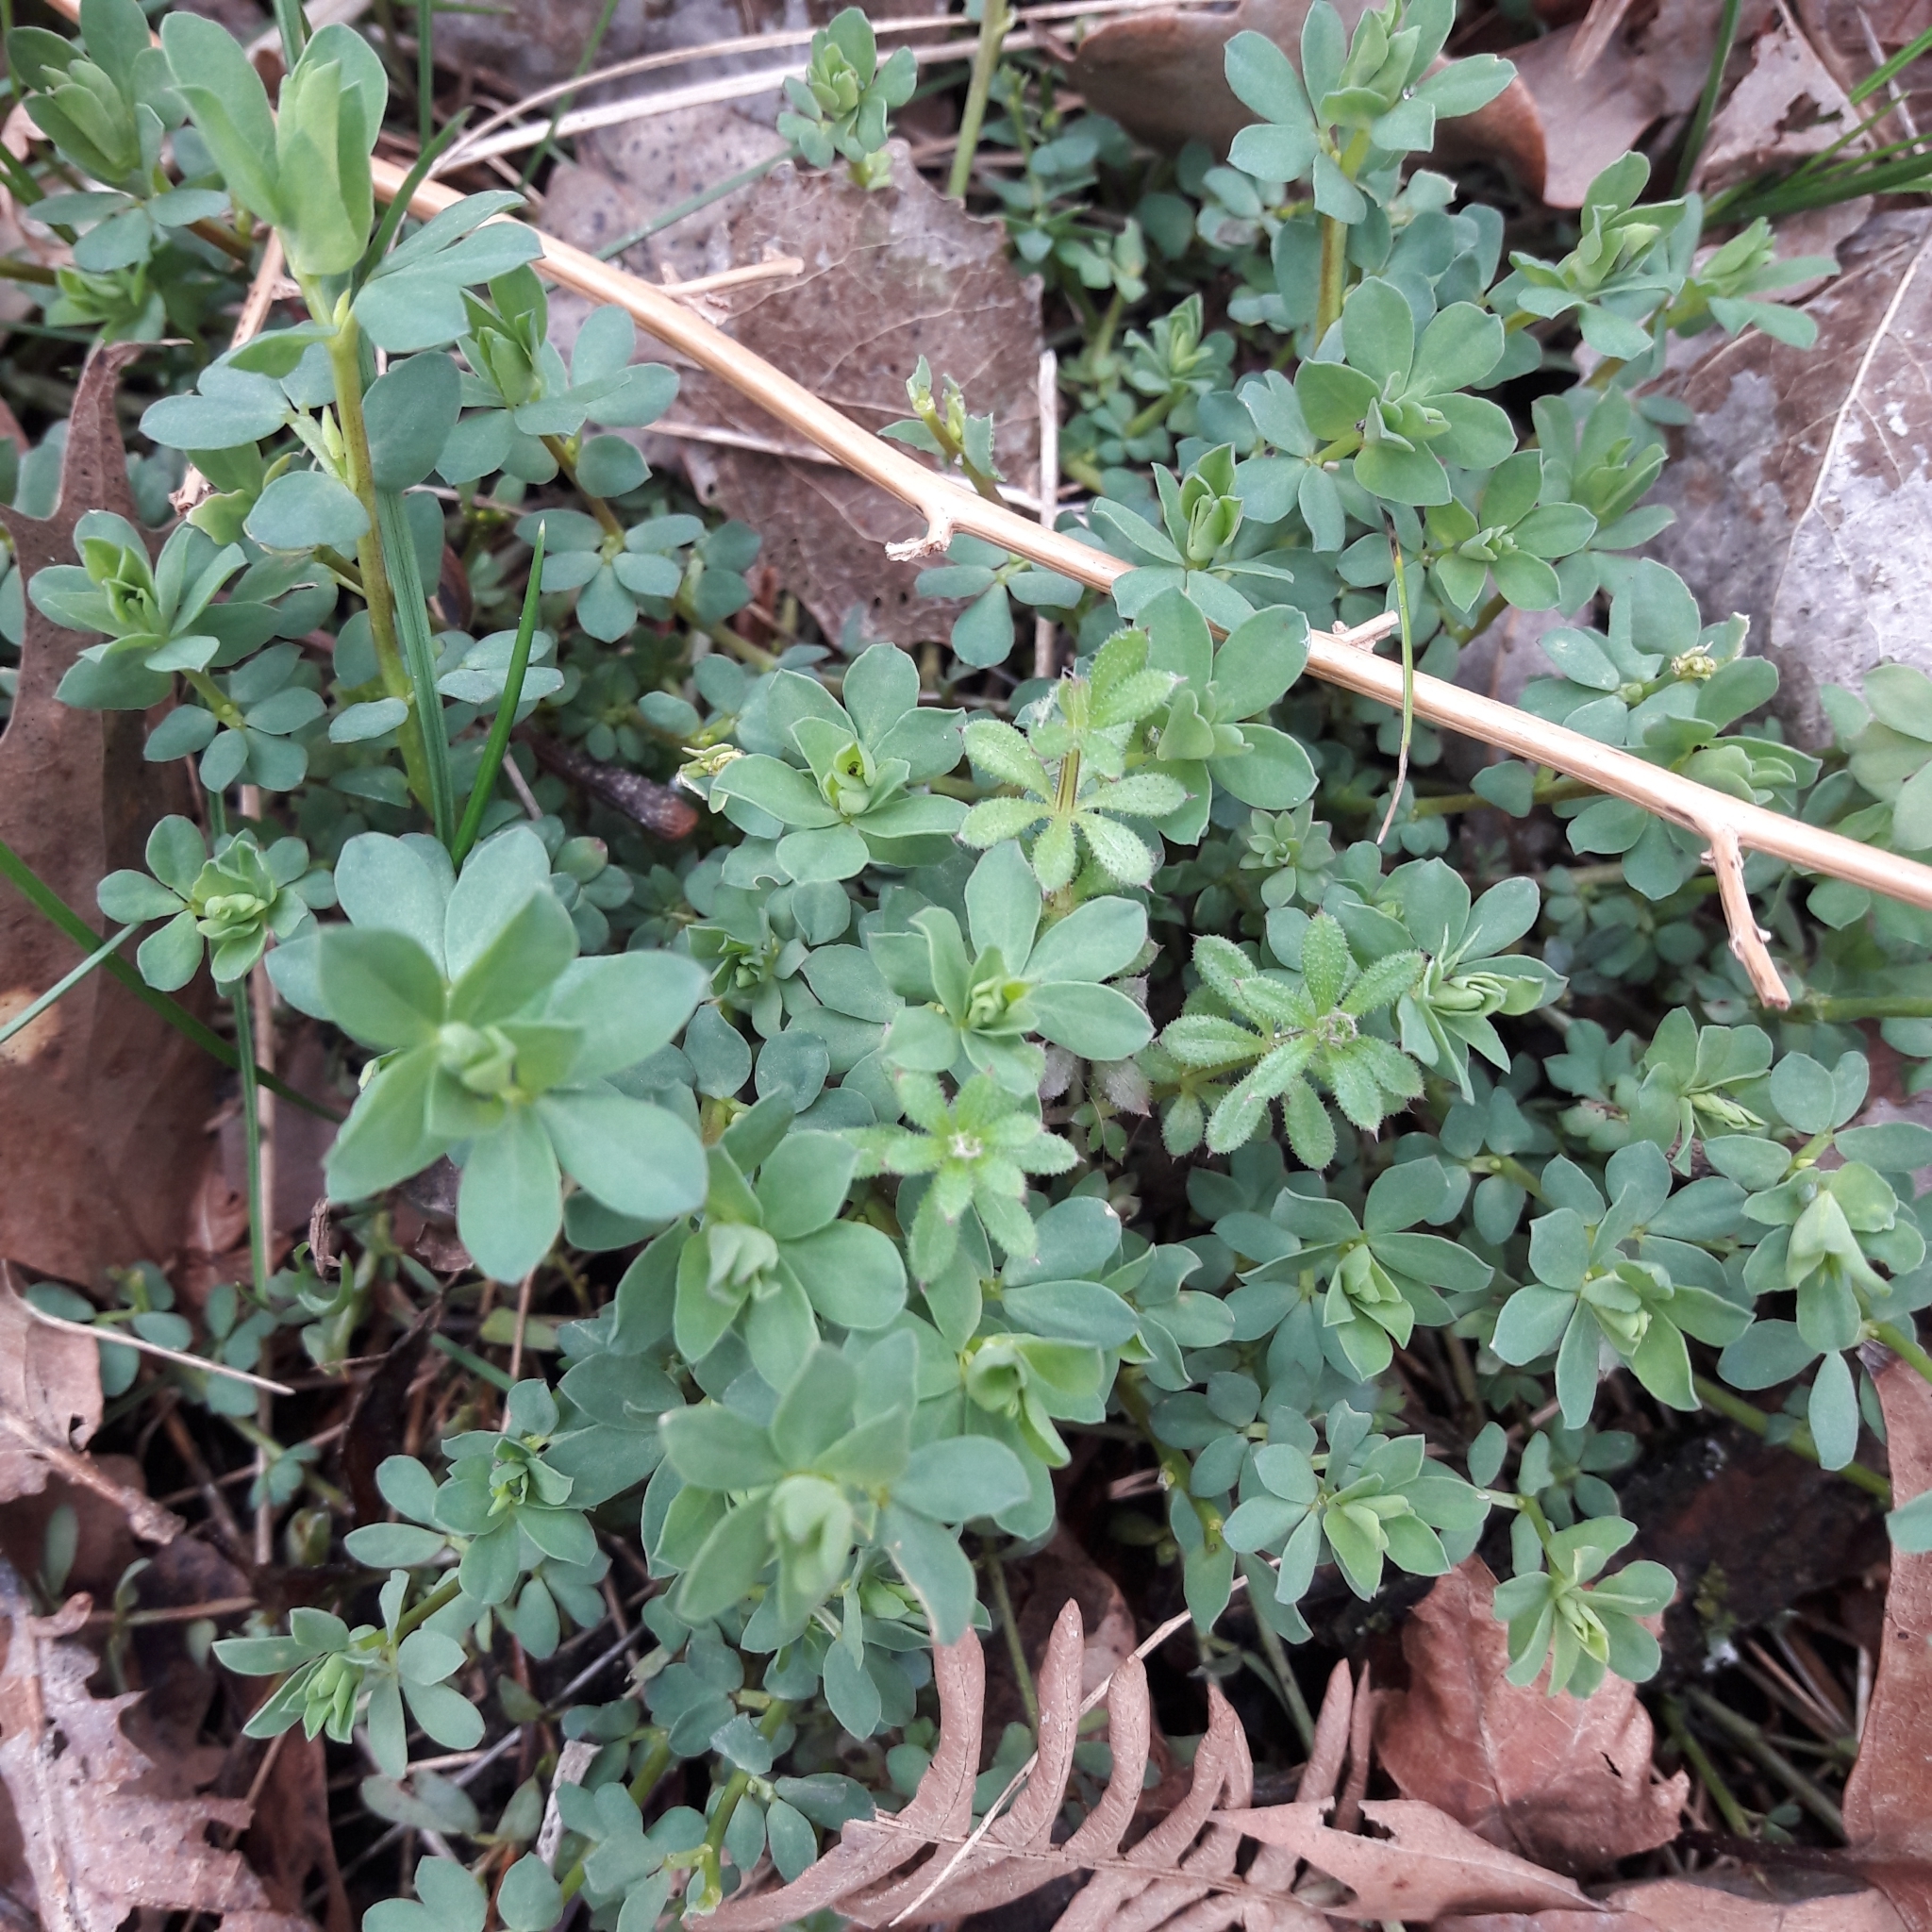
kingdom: Plantae
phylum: Tracheophyta
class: Magnoliopsida
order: Fabales
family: Fabaceae
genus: Lotus
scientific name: Lotus corniculatus
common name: Common bird's-foot-trefoil
